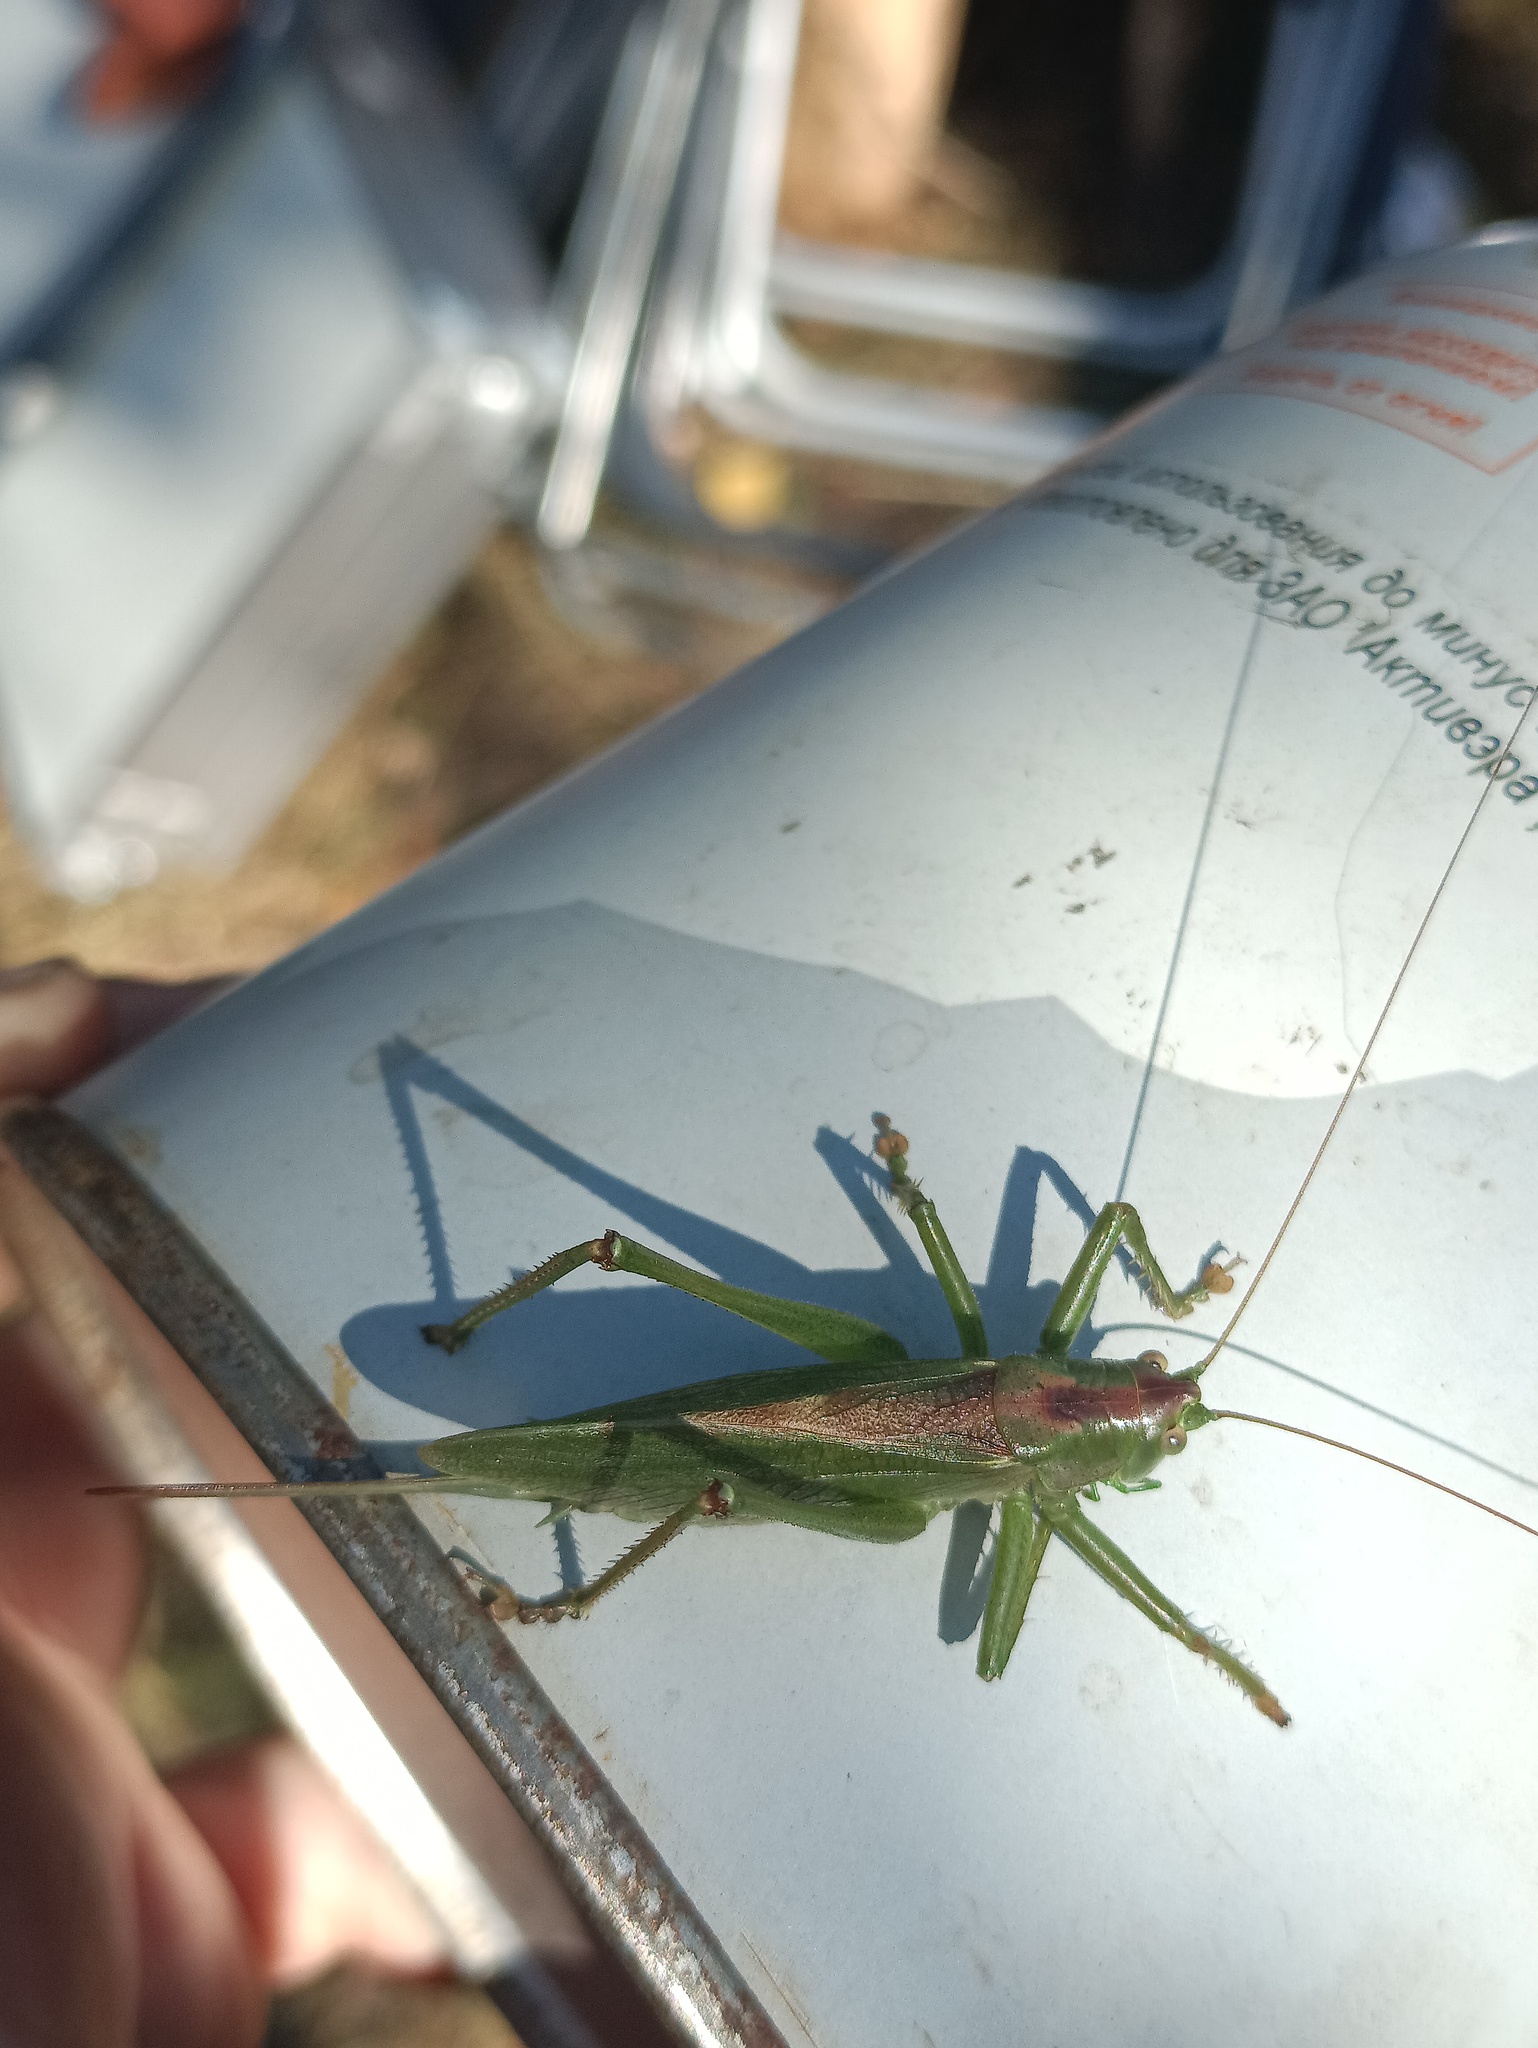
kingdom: Animalia
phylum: Arthropoda
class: Insecta
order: Orthoptera
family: Tettigoniidae
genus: Tettigonia
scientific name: Tettigonia cantans
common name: Upland green bush-cricket
